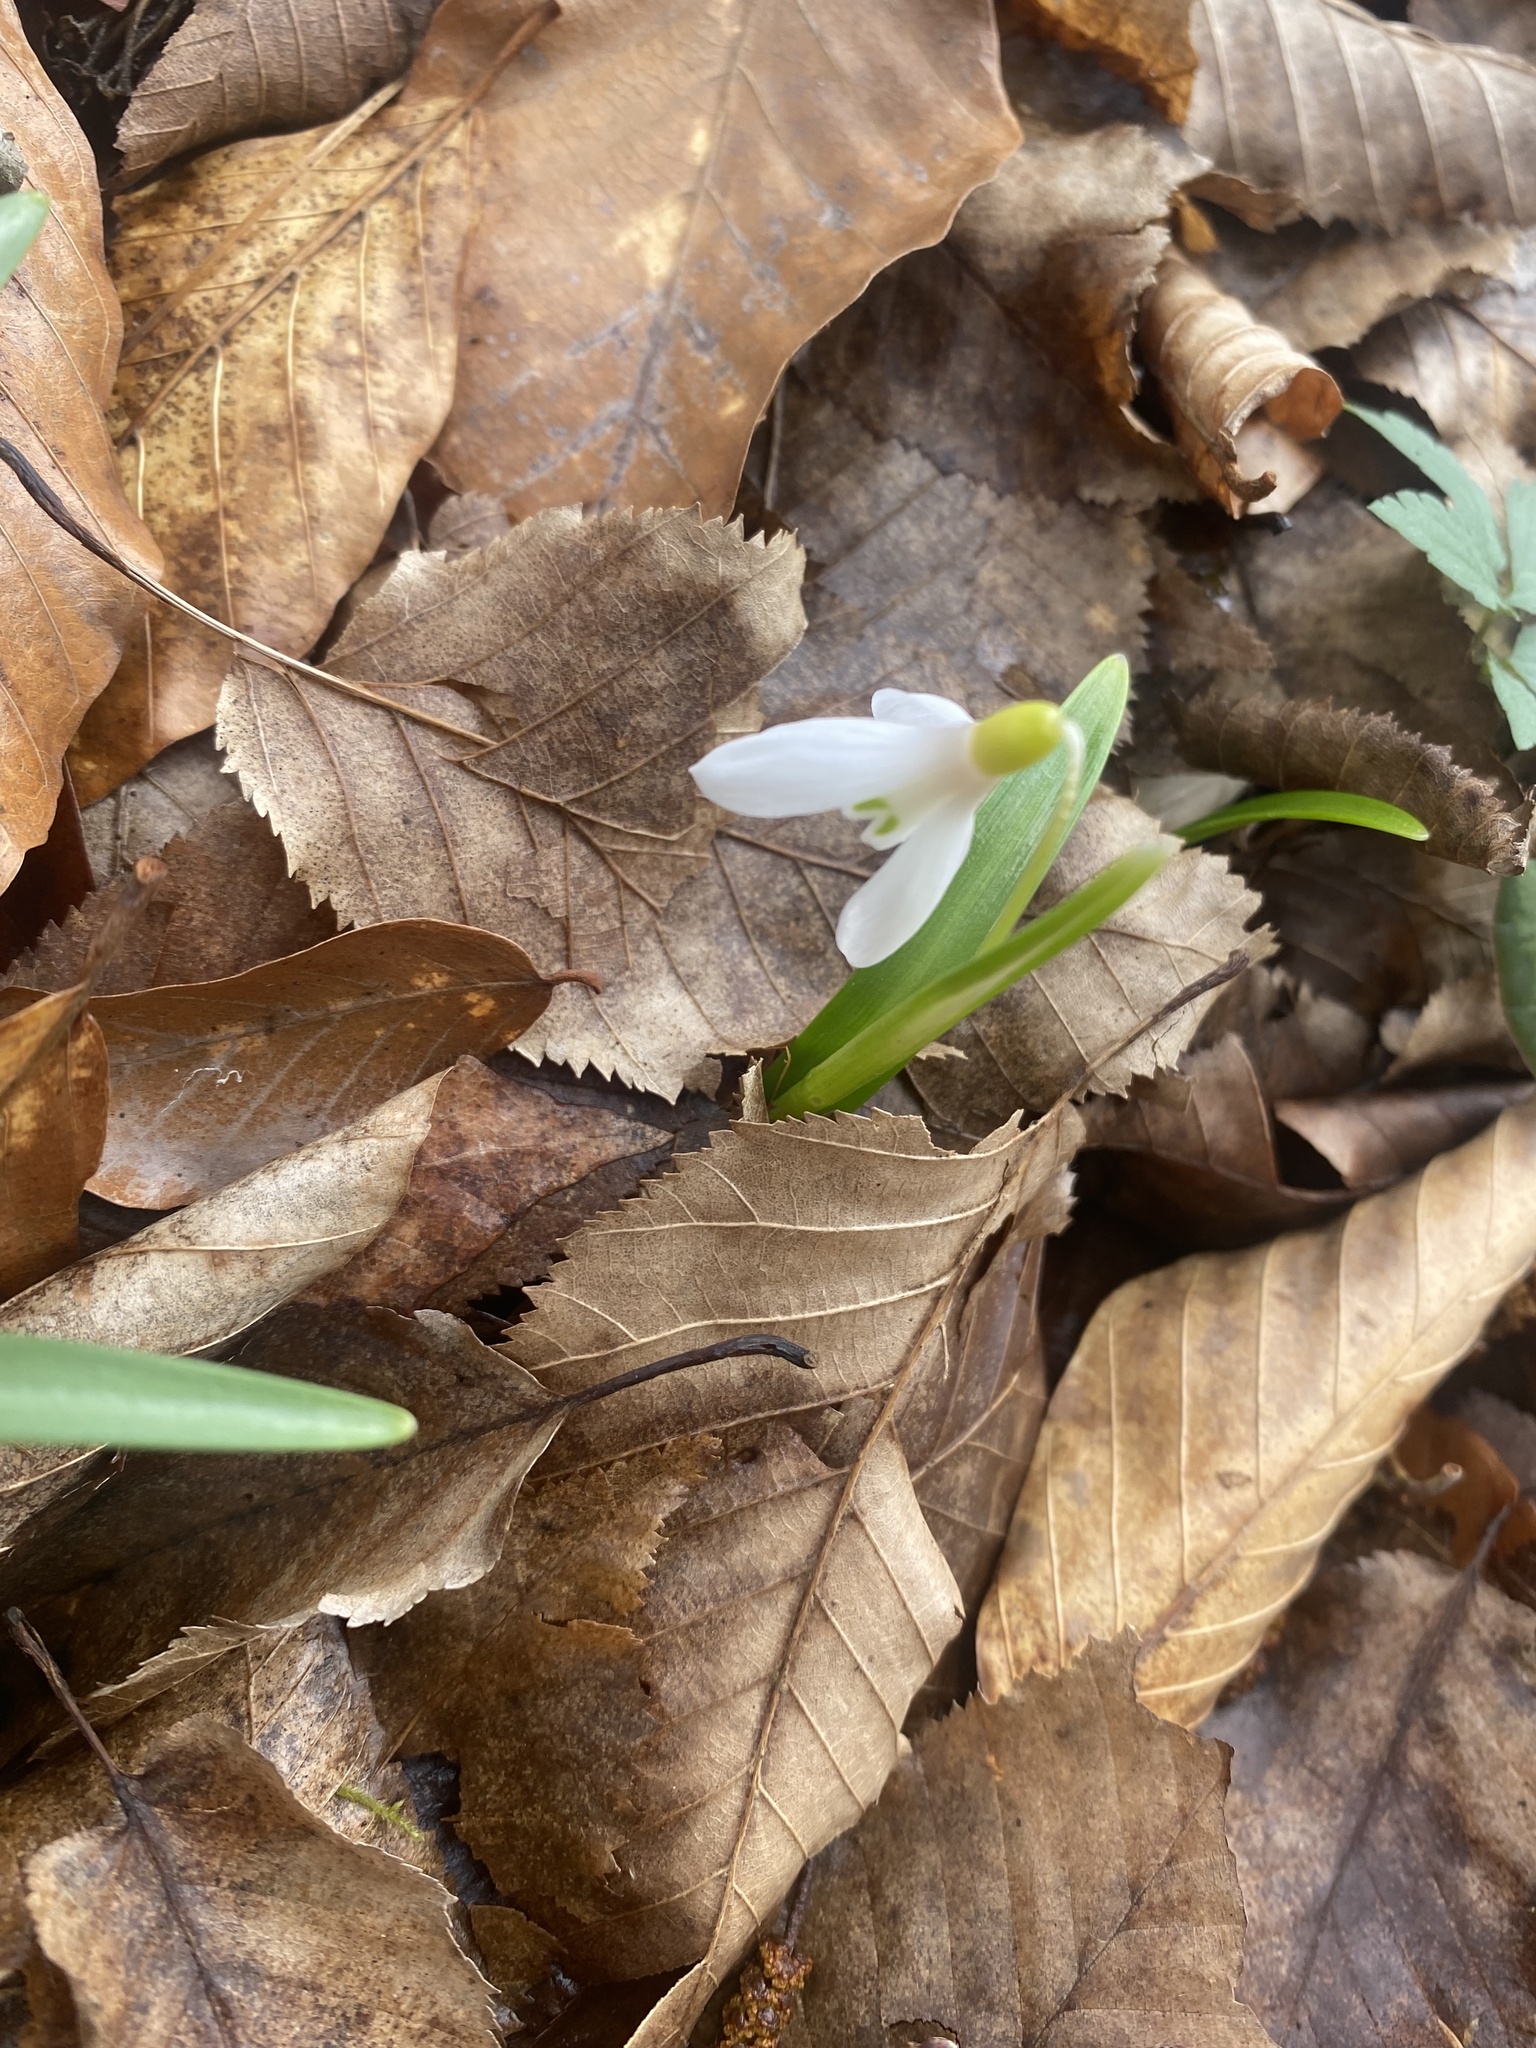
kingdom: Plantae
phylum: Tracheophyta
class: Liliopsida
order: Asparagales
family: Amaryllidaceae
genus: Galanthus
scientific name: Galanthus rizehensis
